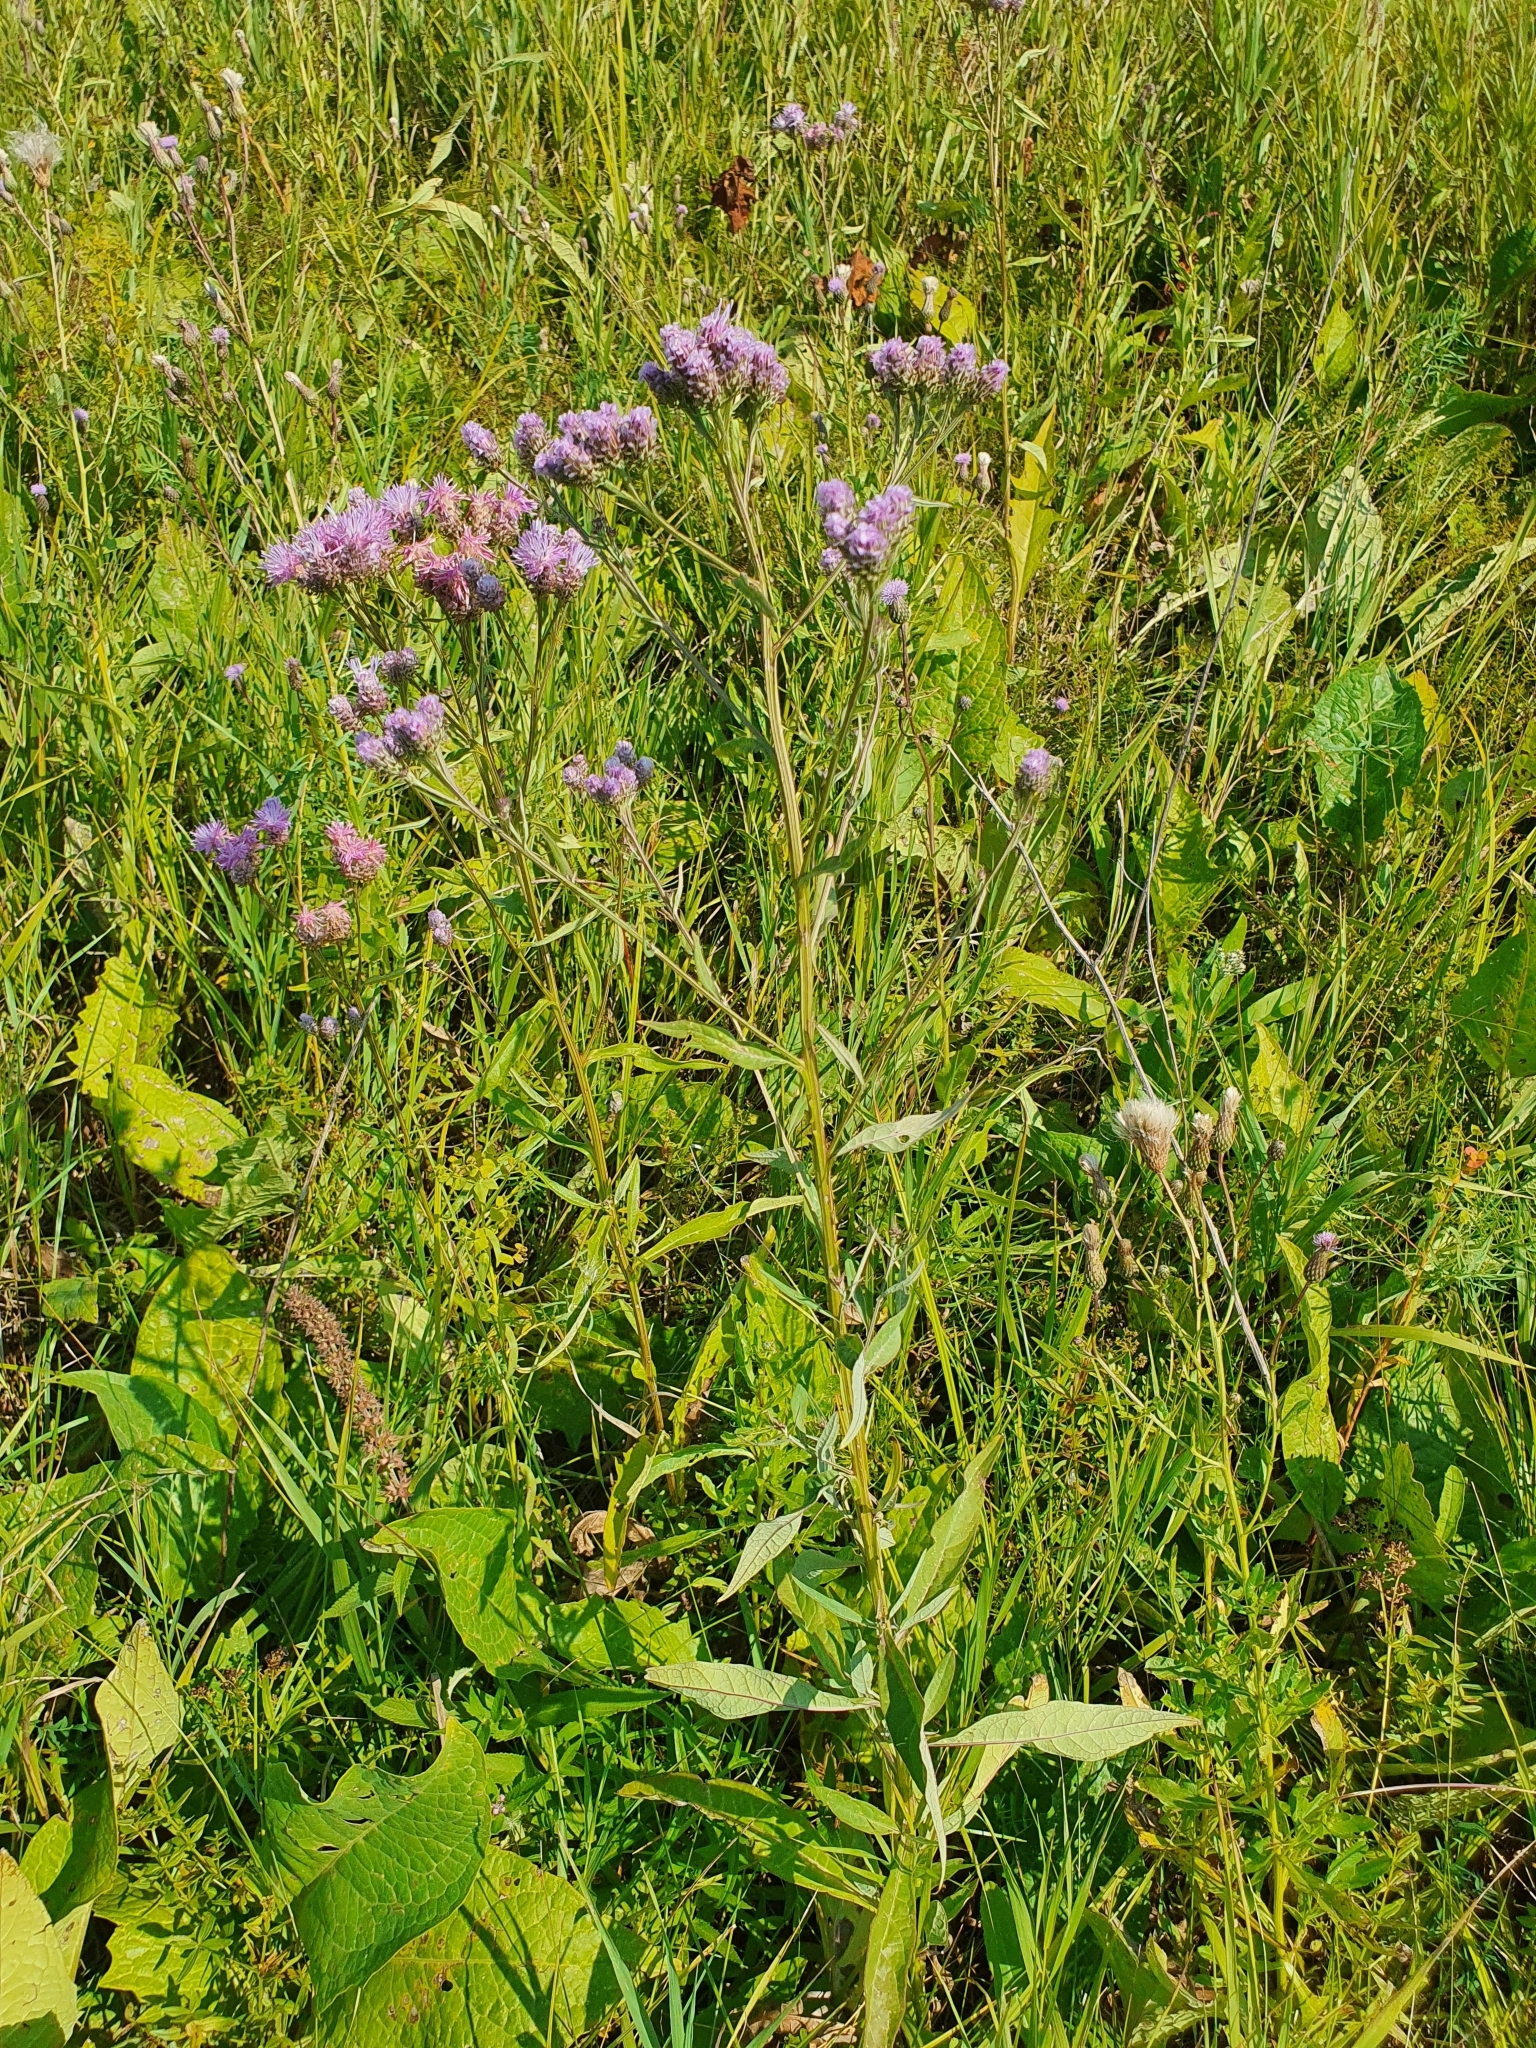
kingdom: Plantae
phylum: Tracheophyta
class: Magnoliopsida
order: Asterales
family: Asteraceae
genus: Saussurea
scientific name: Saussurea amara
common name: Alberta sawwort
